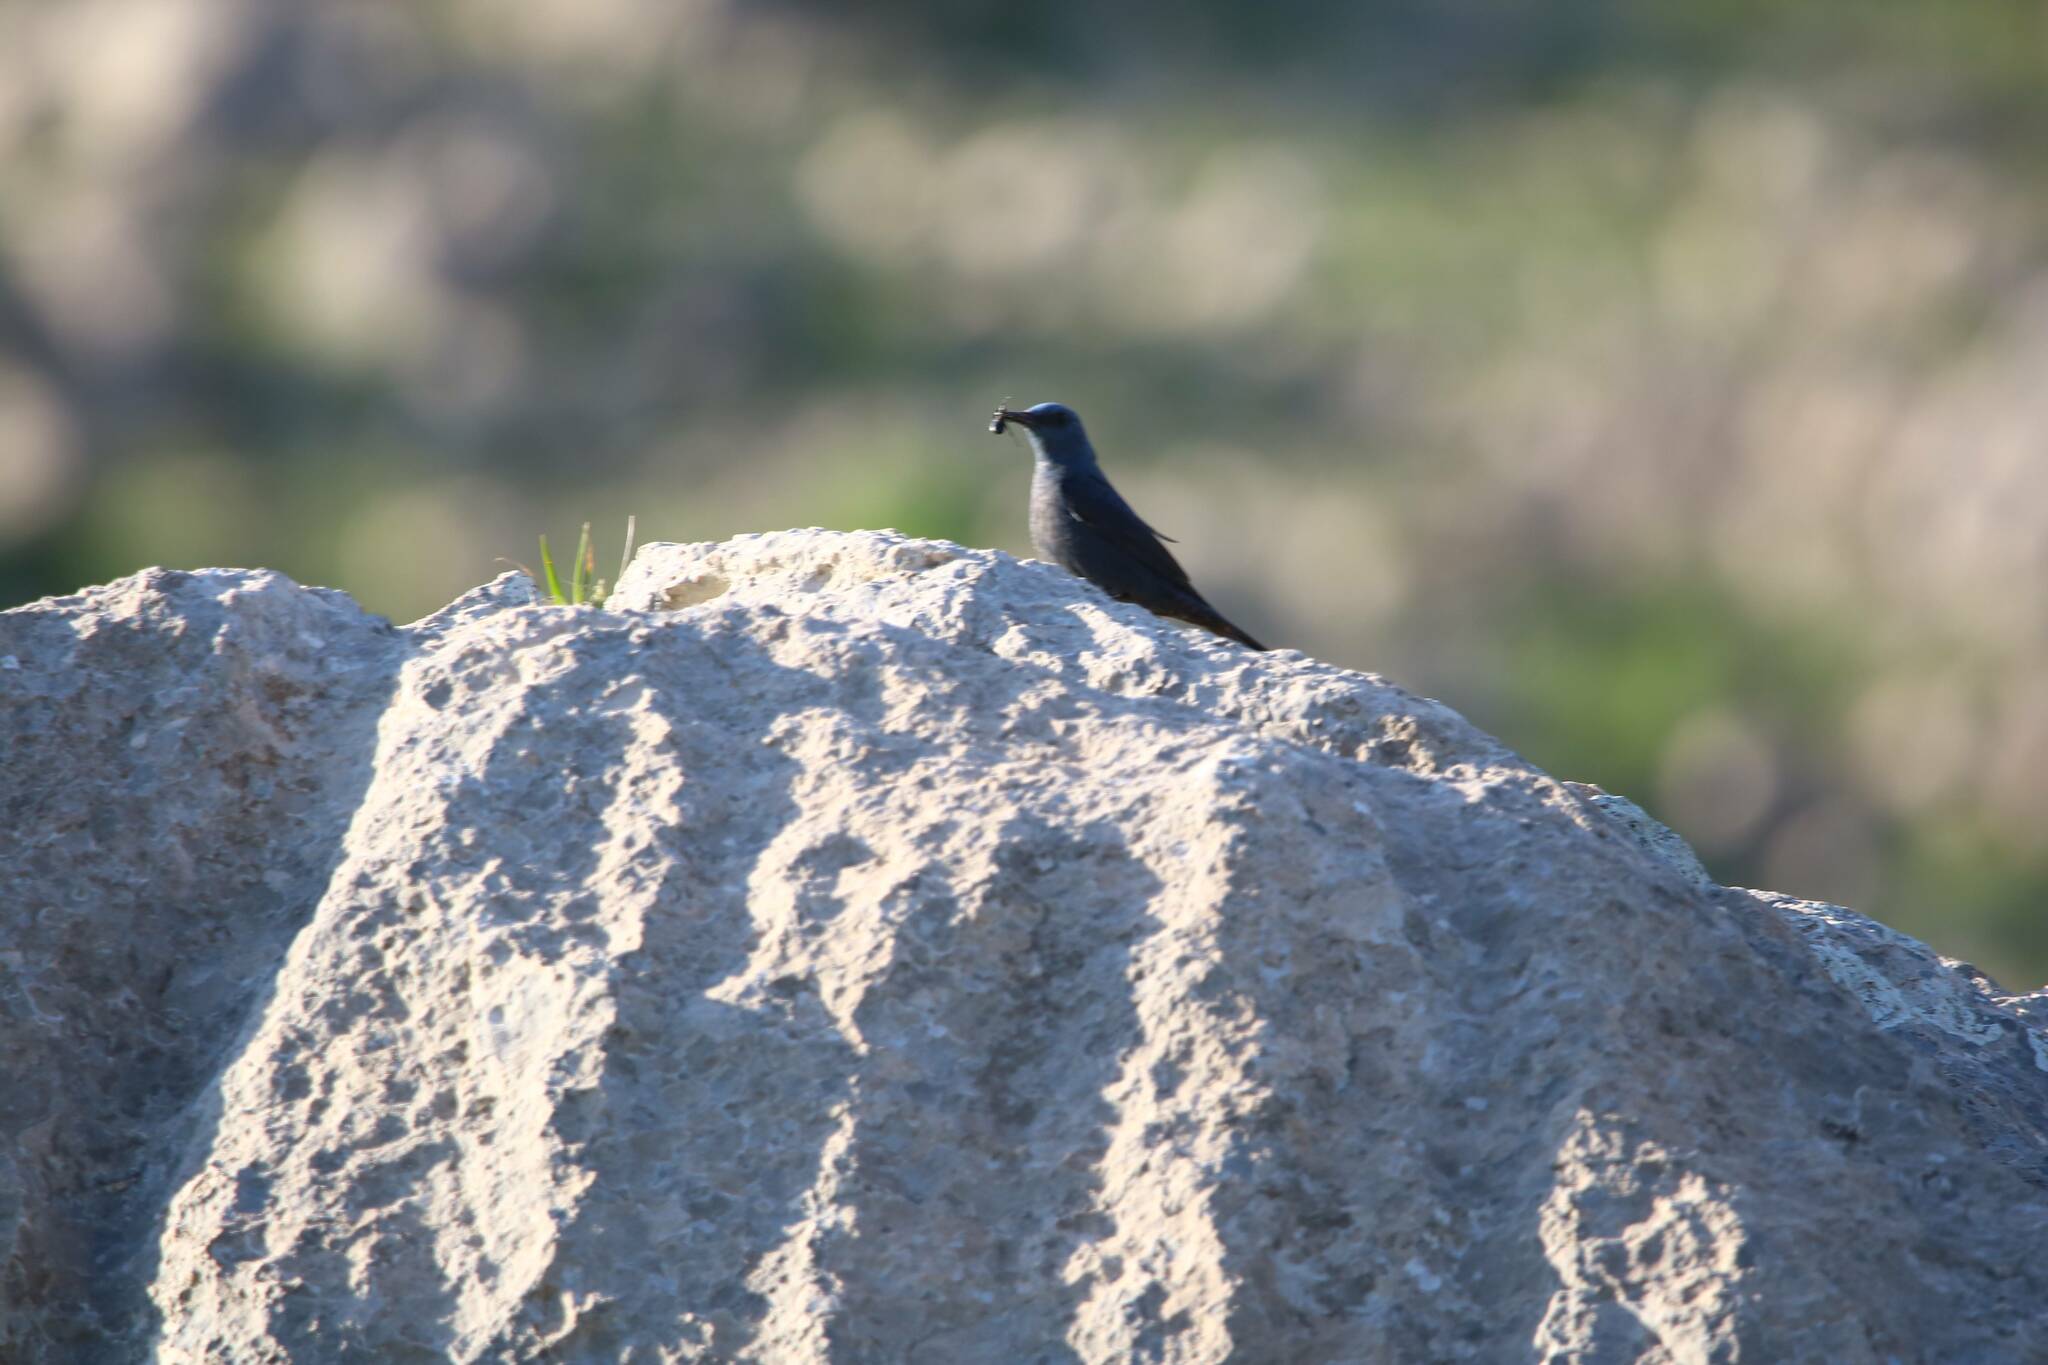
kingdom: Animalia
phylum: Chordata
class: Aves
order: Passeriformes
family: Muscicapidae
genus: Monticola
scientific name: Monticola solitarius
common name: Blue rock thrush
